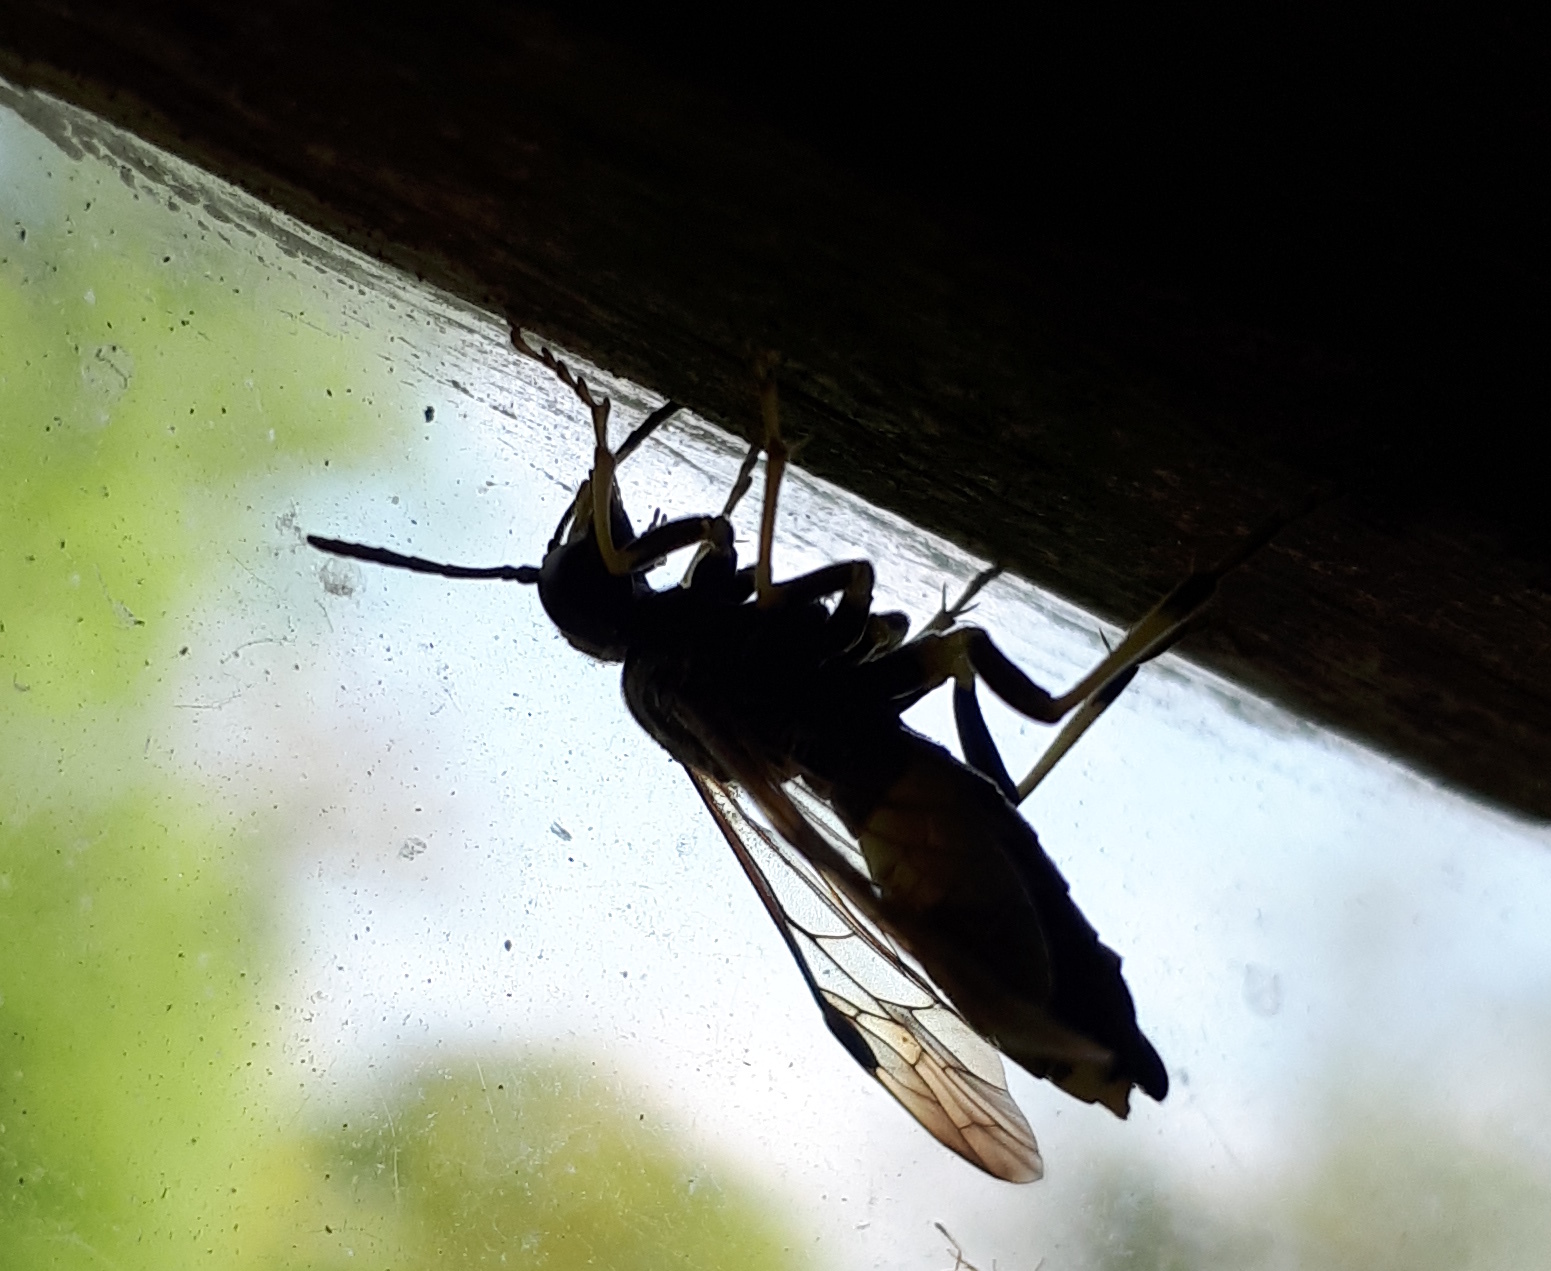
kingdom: Animalia
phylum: Arthropoda
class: Insecta
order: Hymenoptera
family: Tenthredinidae
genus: Tenthredo
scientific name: Tenthredo temula
